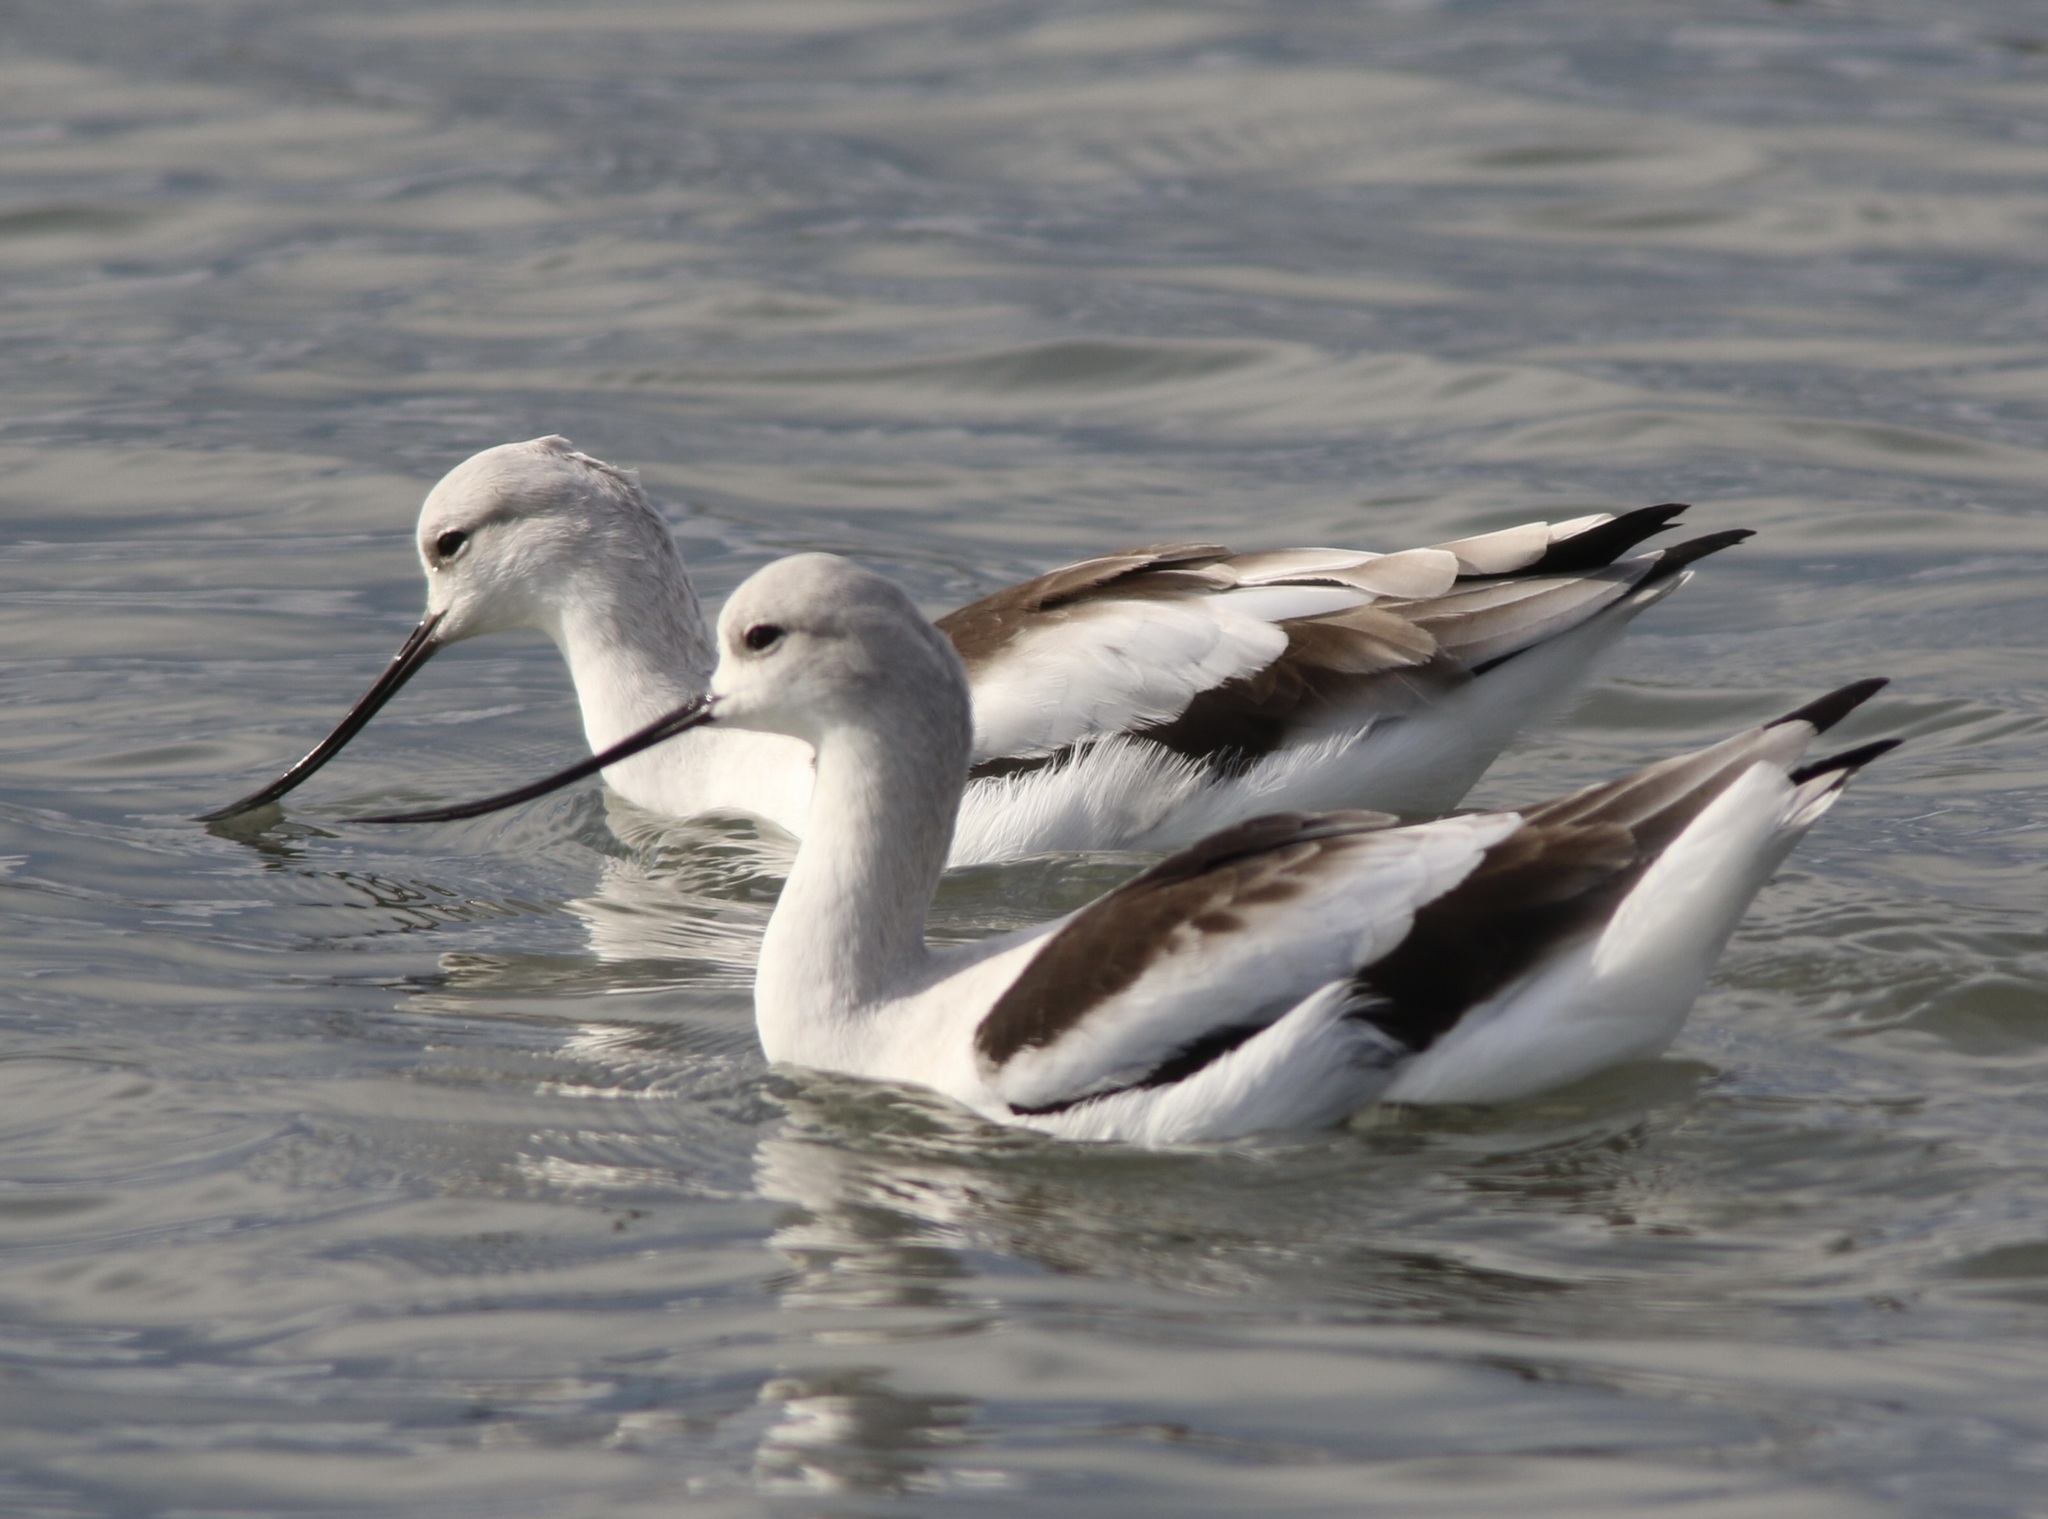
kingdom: Animalia
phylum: Chordata
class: Aves
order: Charadriiformes
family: Recurvirostridae
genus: Recurvirostra
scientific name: Recurvirostra americana
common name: American avocet
